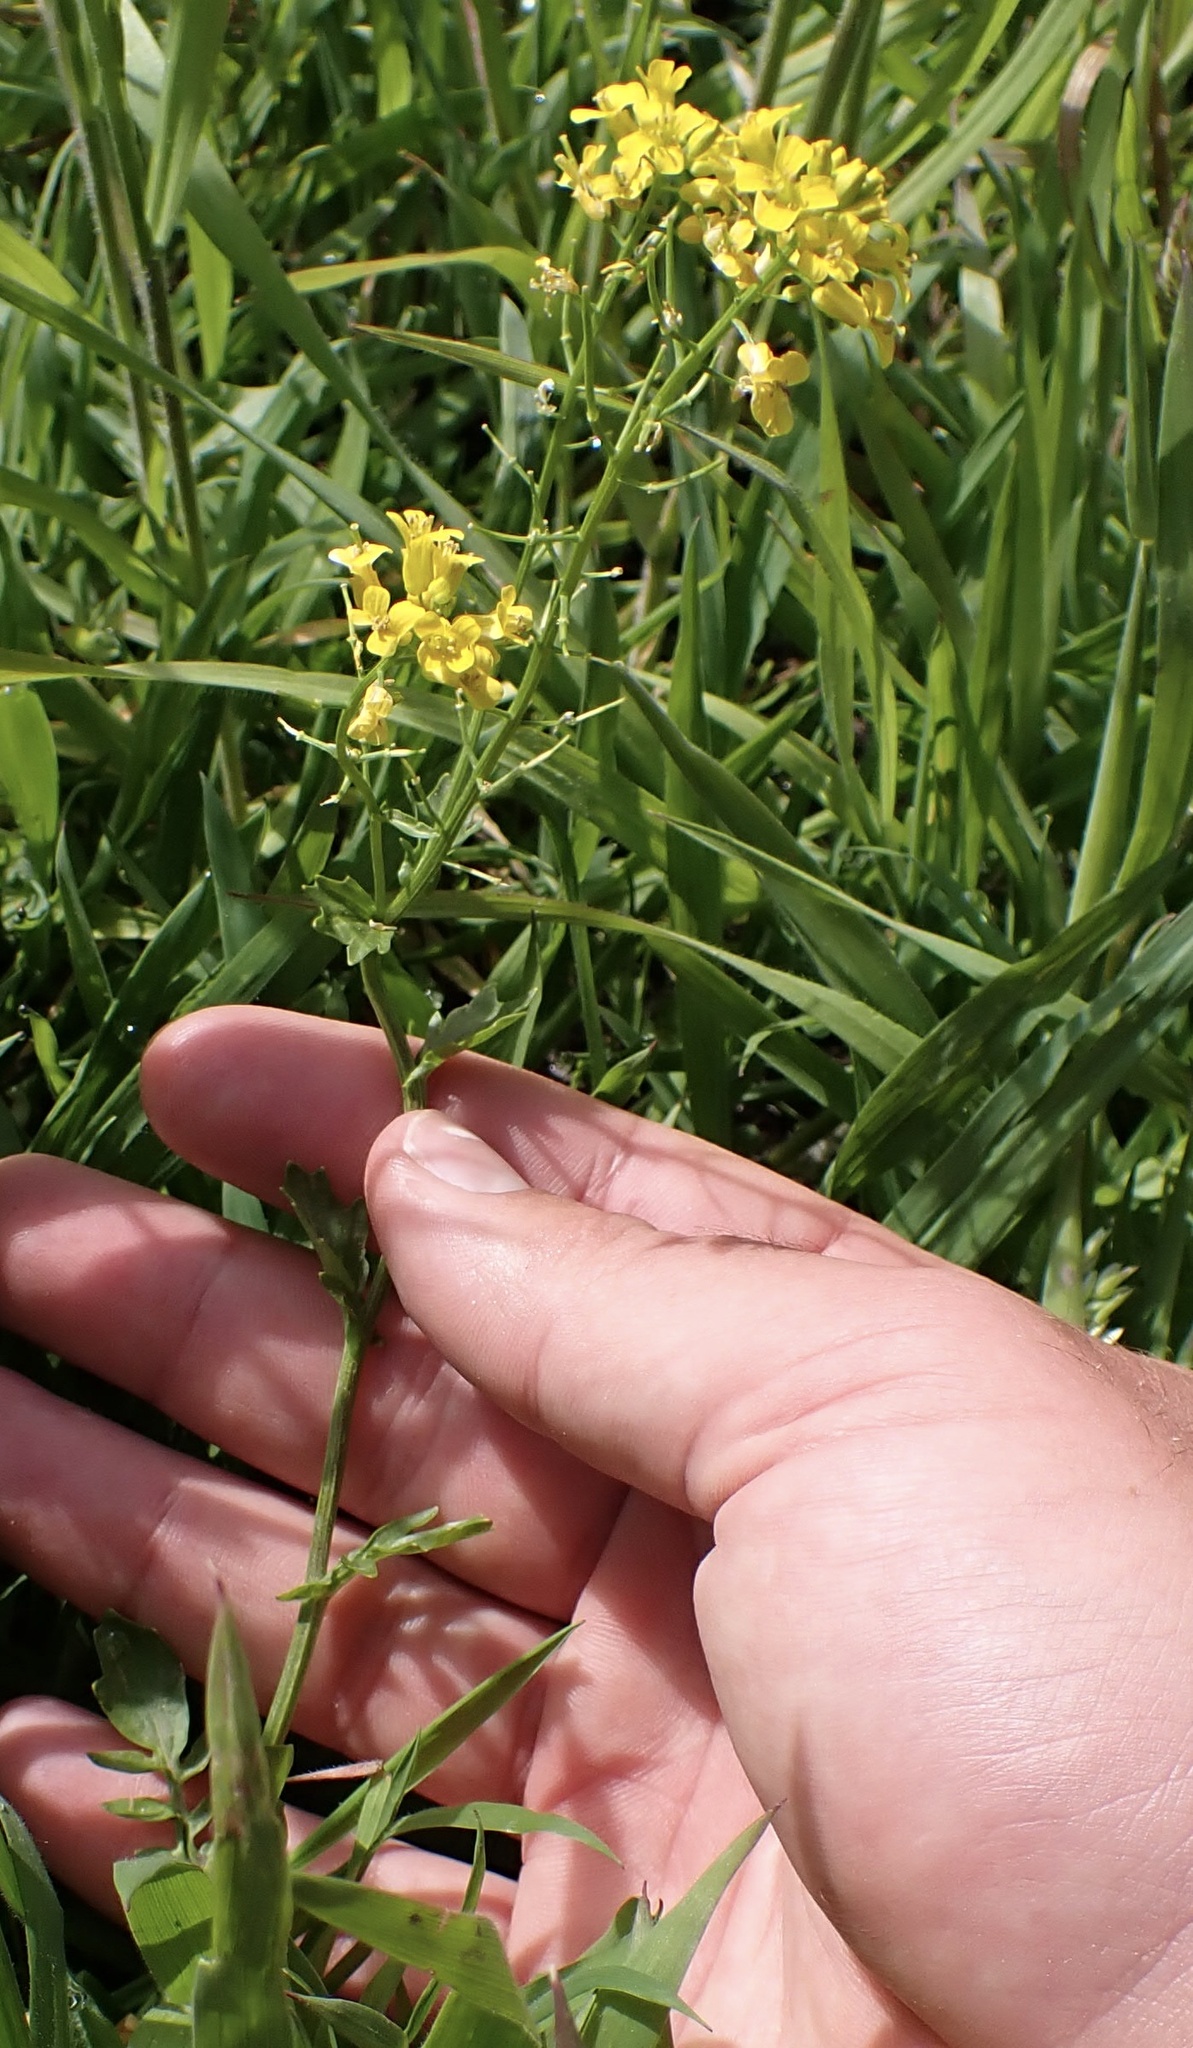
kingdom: Plantae
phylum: Tracheophyta
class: Magnoliopsida
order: Brassicales
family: Brassicaceae
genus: Barbarea
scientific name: Barbarea vulgaris
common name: Cressy-greens
